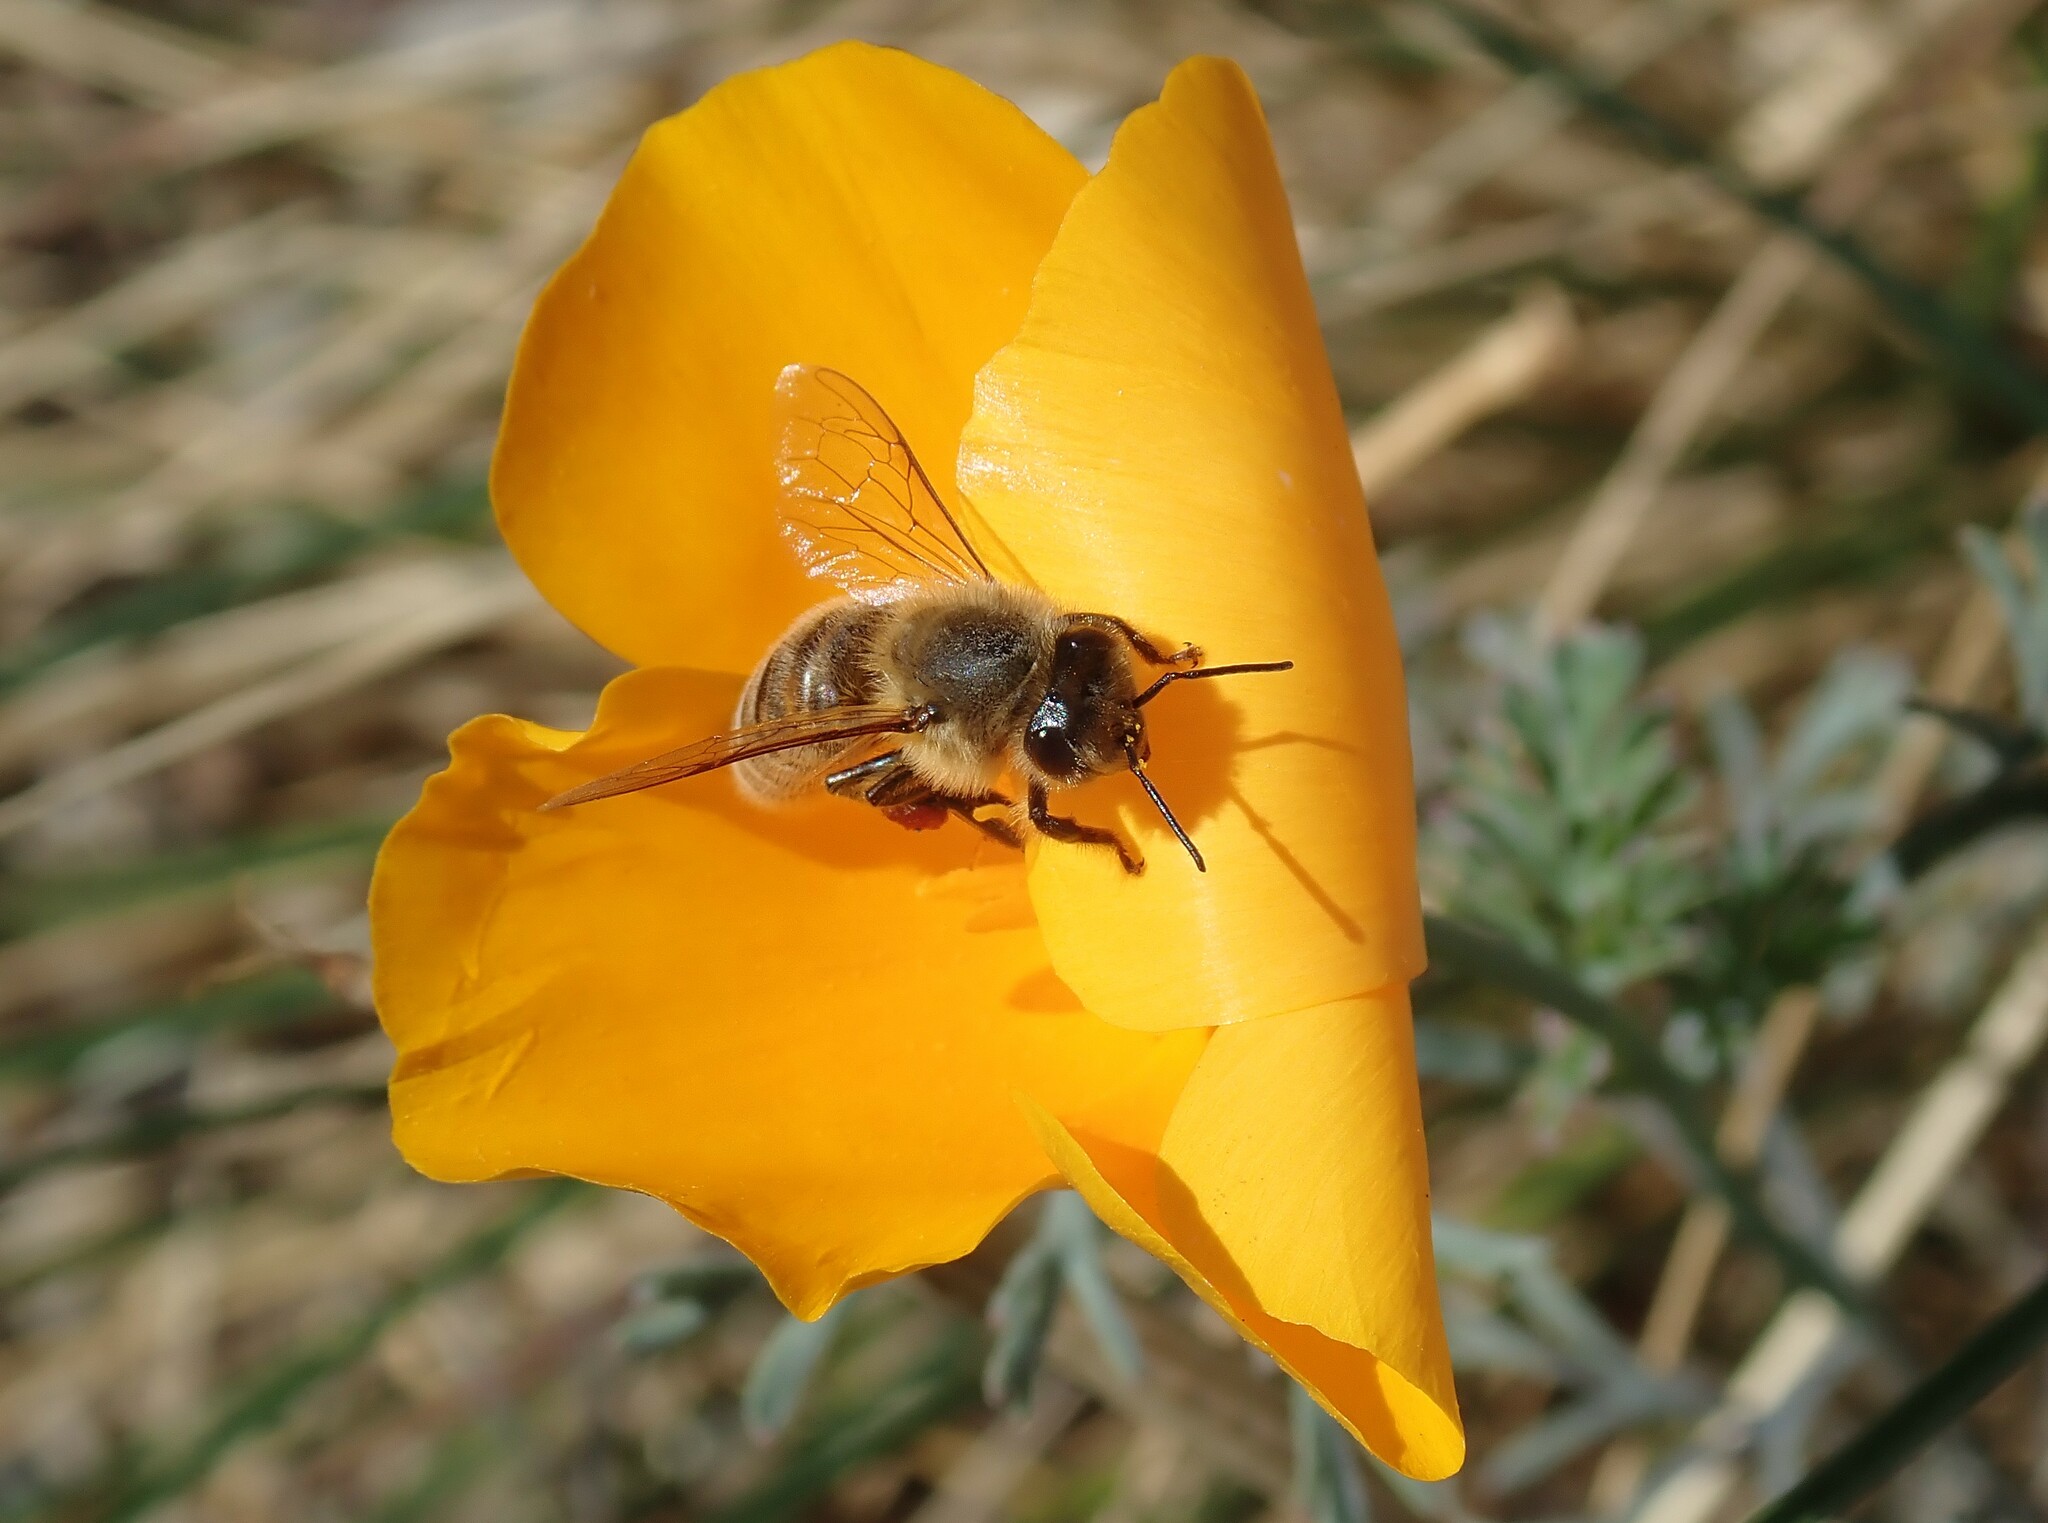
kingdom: Animalia
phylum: Arthropoda
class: Insecta
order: Hymenoptera
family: Apidae
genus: Apis
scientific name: Apis mellifera
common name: Honey bee
